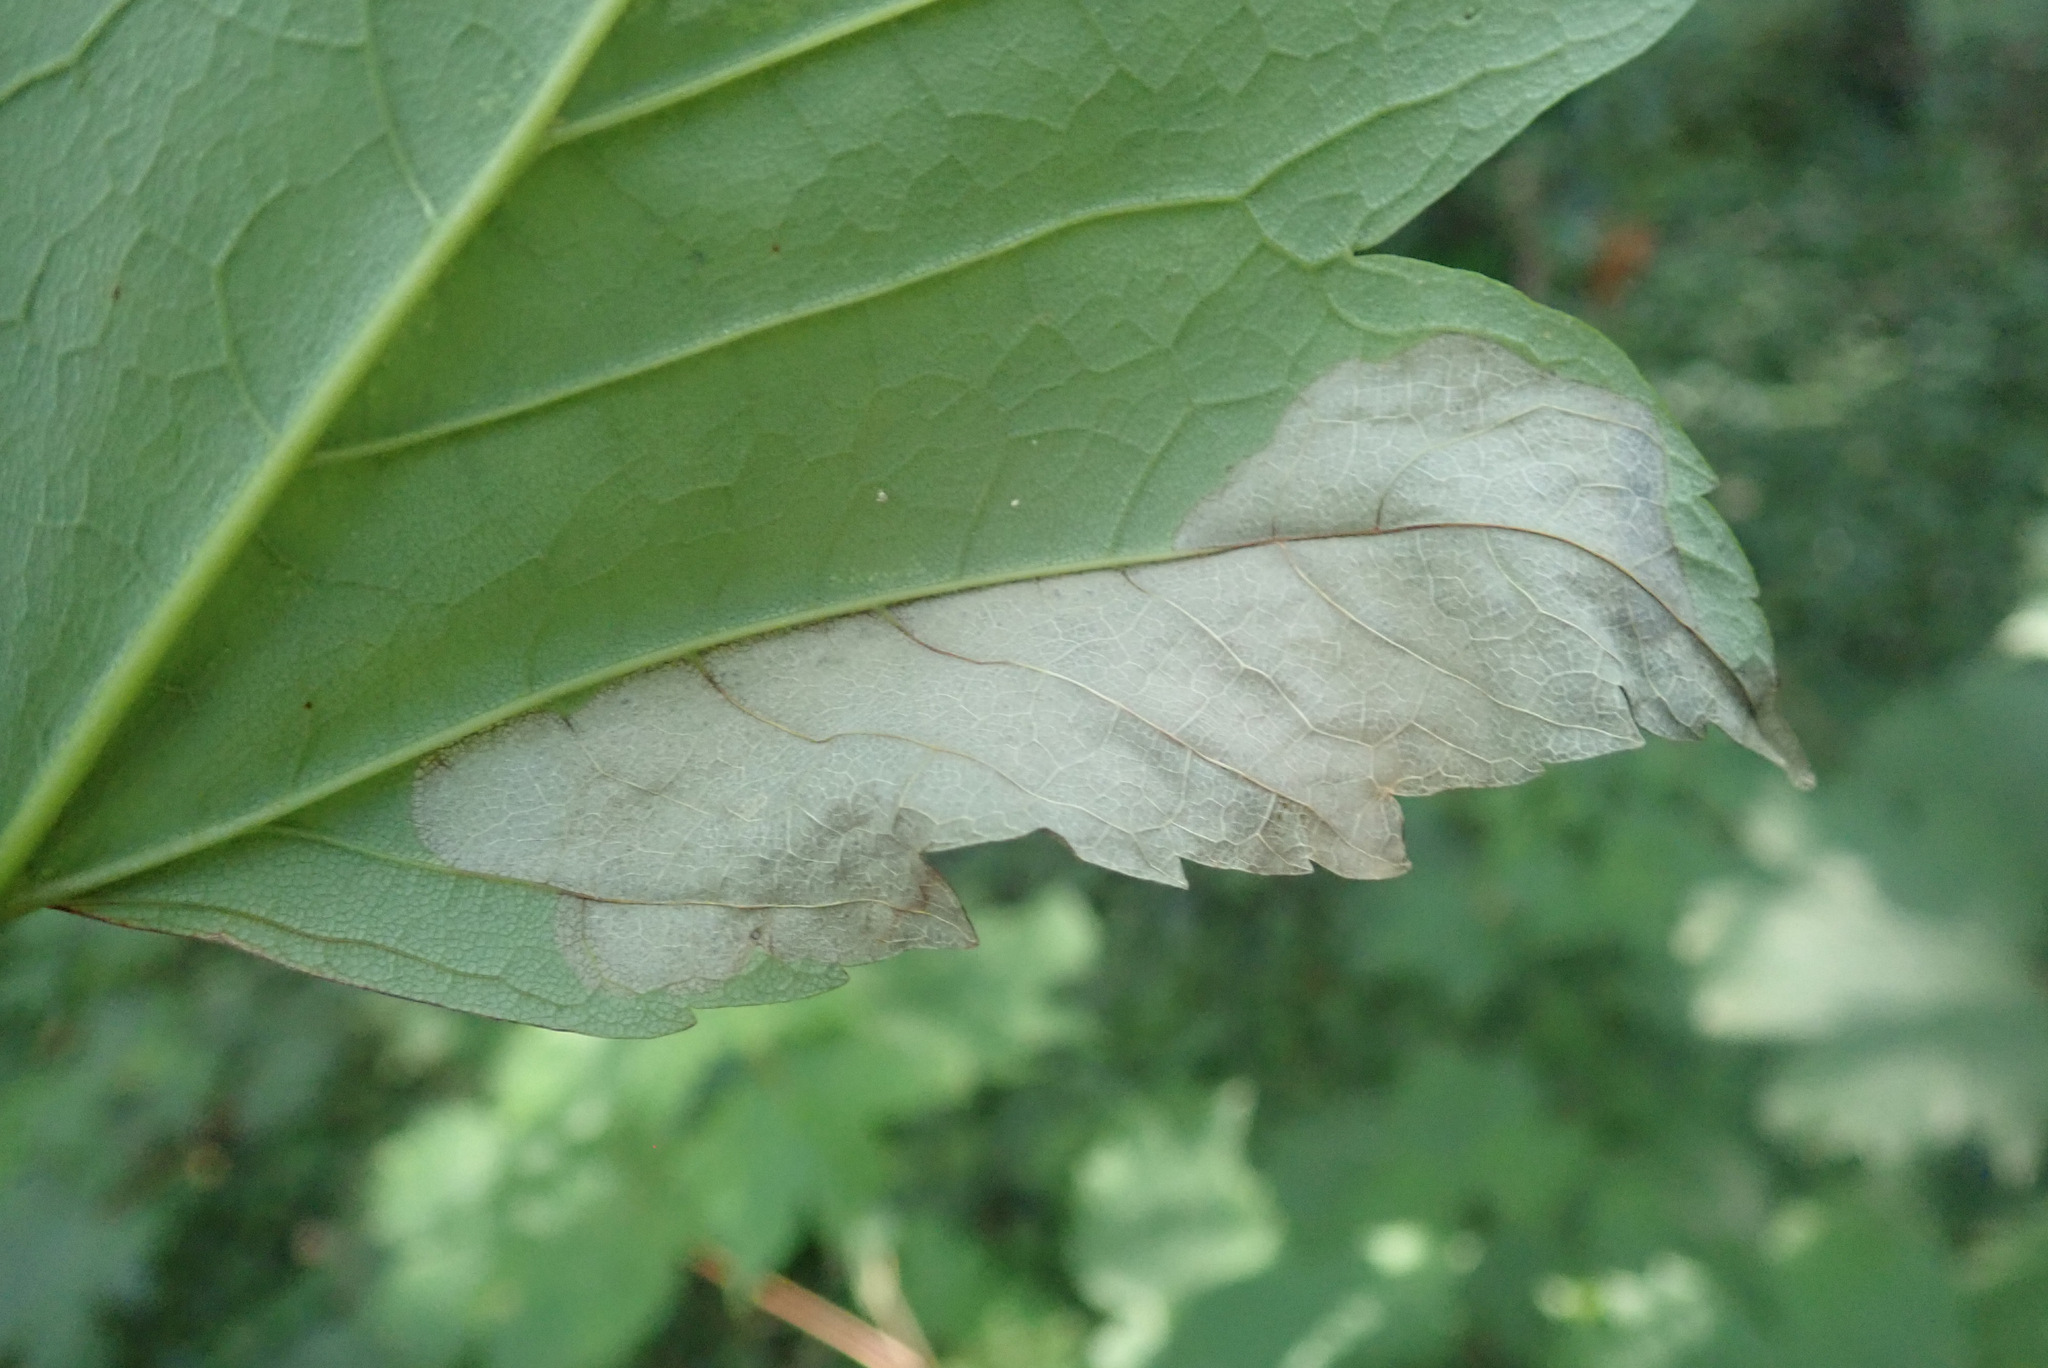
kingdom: Plantae
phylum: Tracheophyta
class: Magnoliopsida
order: Sapindales
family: Sapindaceae
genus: Acer
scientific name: Acer pseudoplatanus
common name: Sycamore
